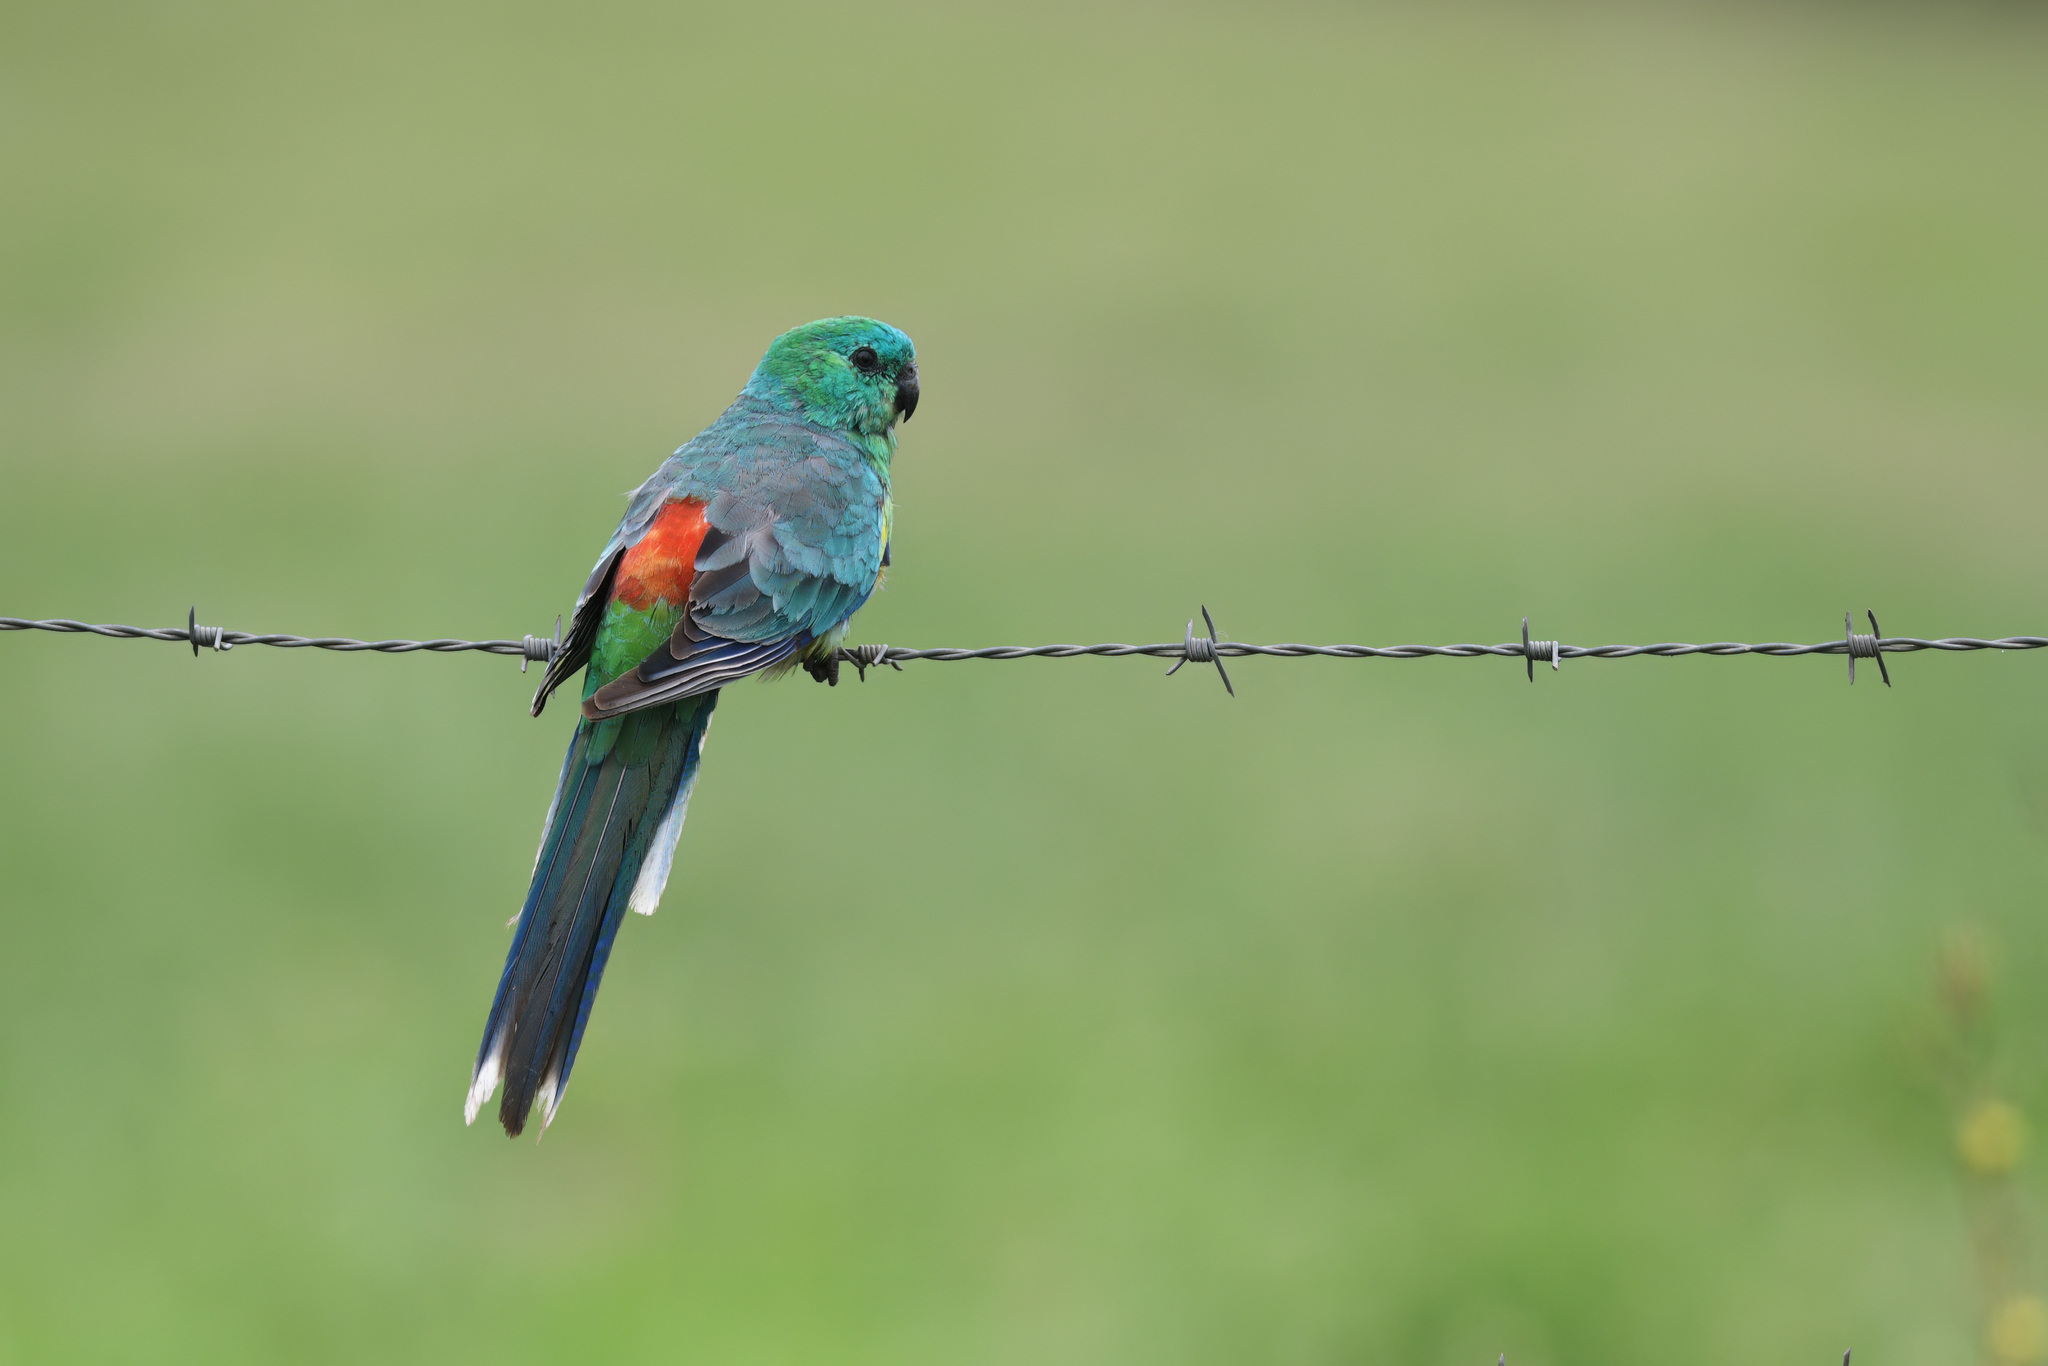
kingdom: Animalia
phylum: Chordata
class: Aves
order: Psittaciformes
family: Psittacidae
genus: Psephotus
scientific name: Psephotus haematonotus
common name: Red-rumped parrot
